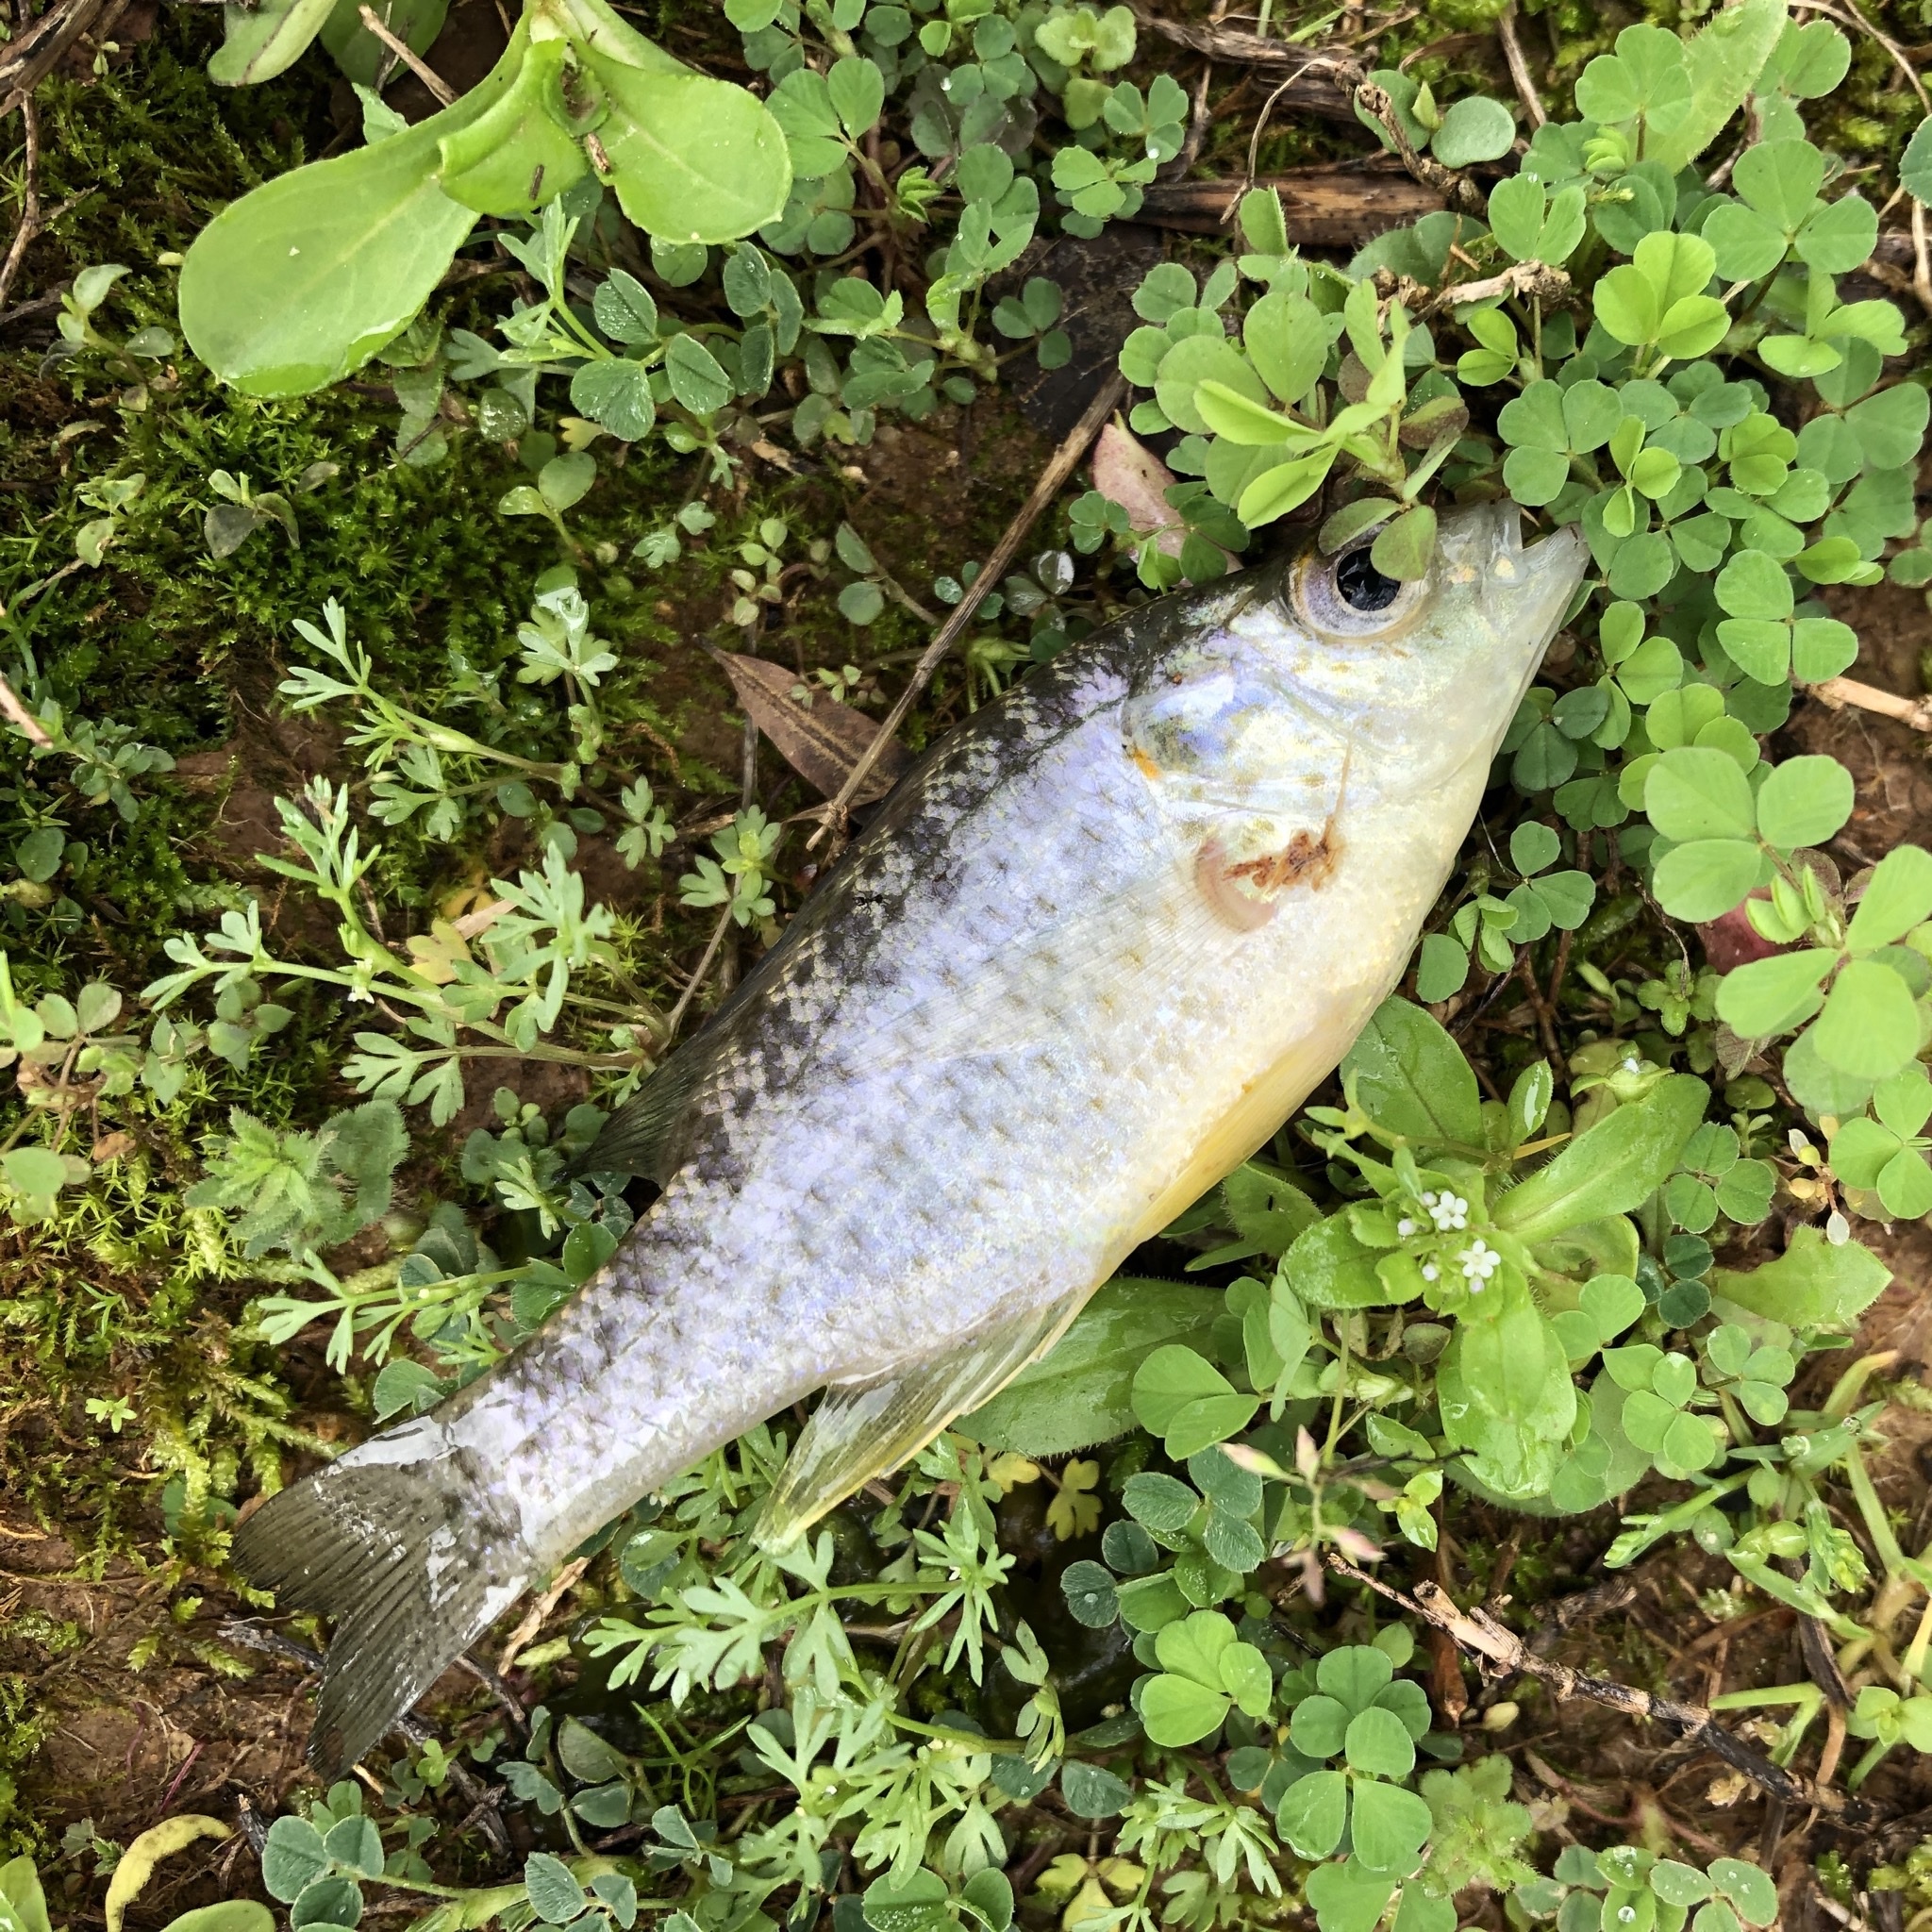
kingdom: Animalia
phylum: Chordata
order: Perciformes
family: Centrarchidae
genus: Lepomis
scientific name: Lepomis microlophus
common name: Redear sunfish
